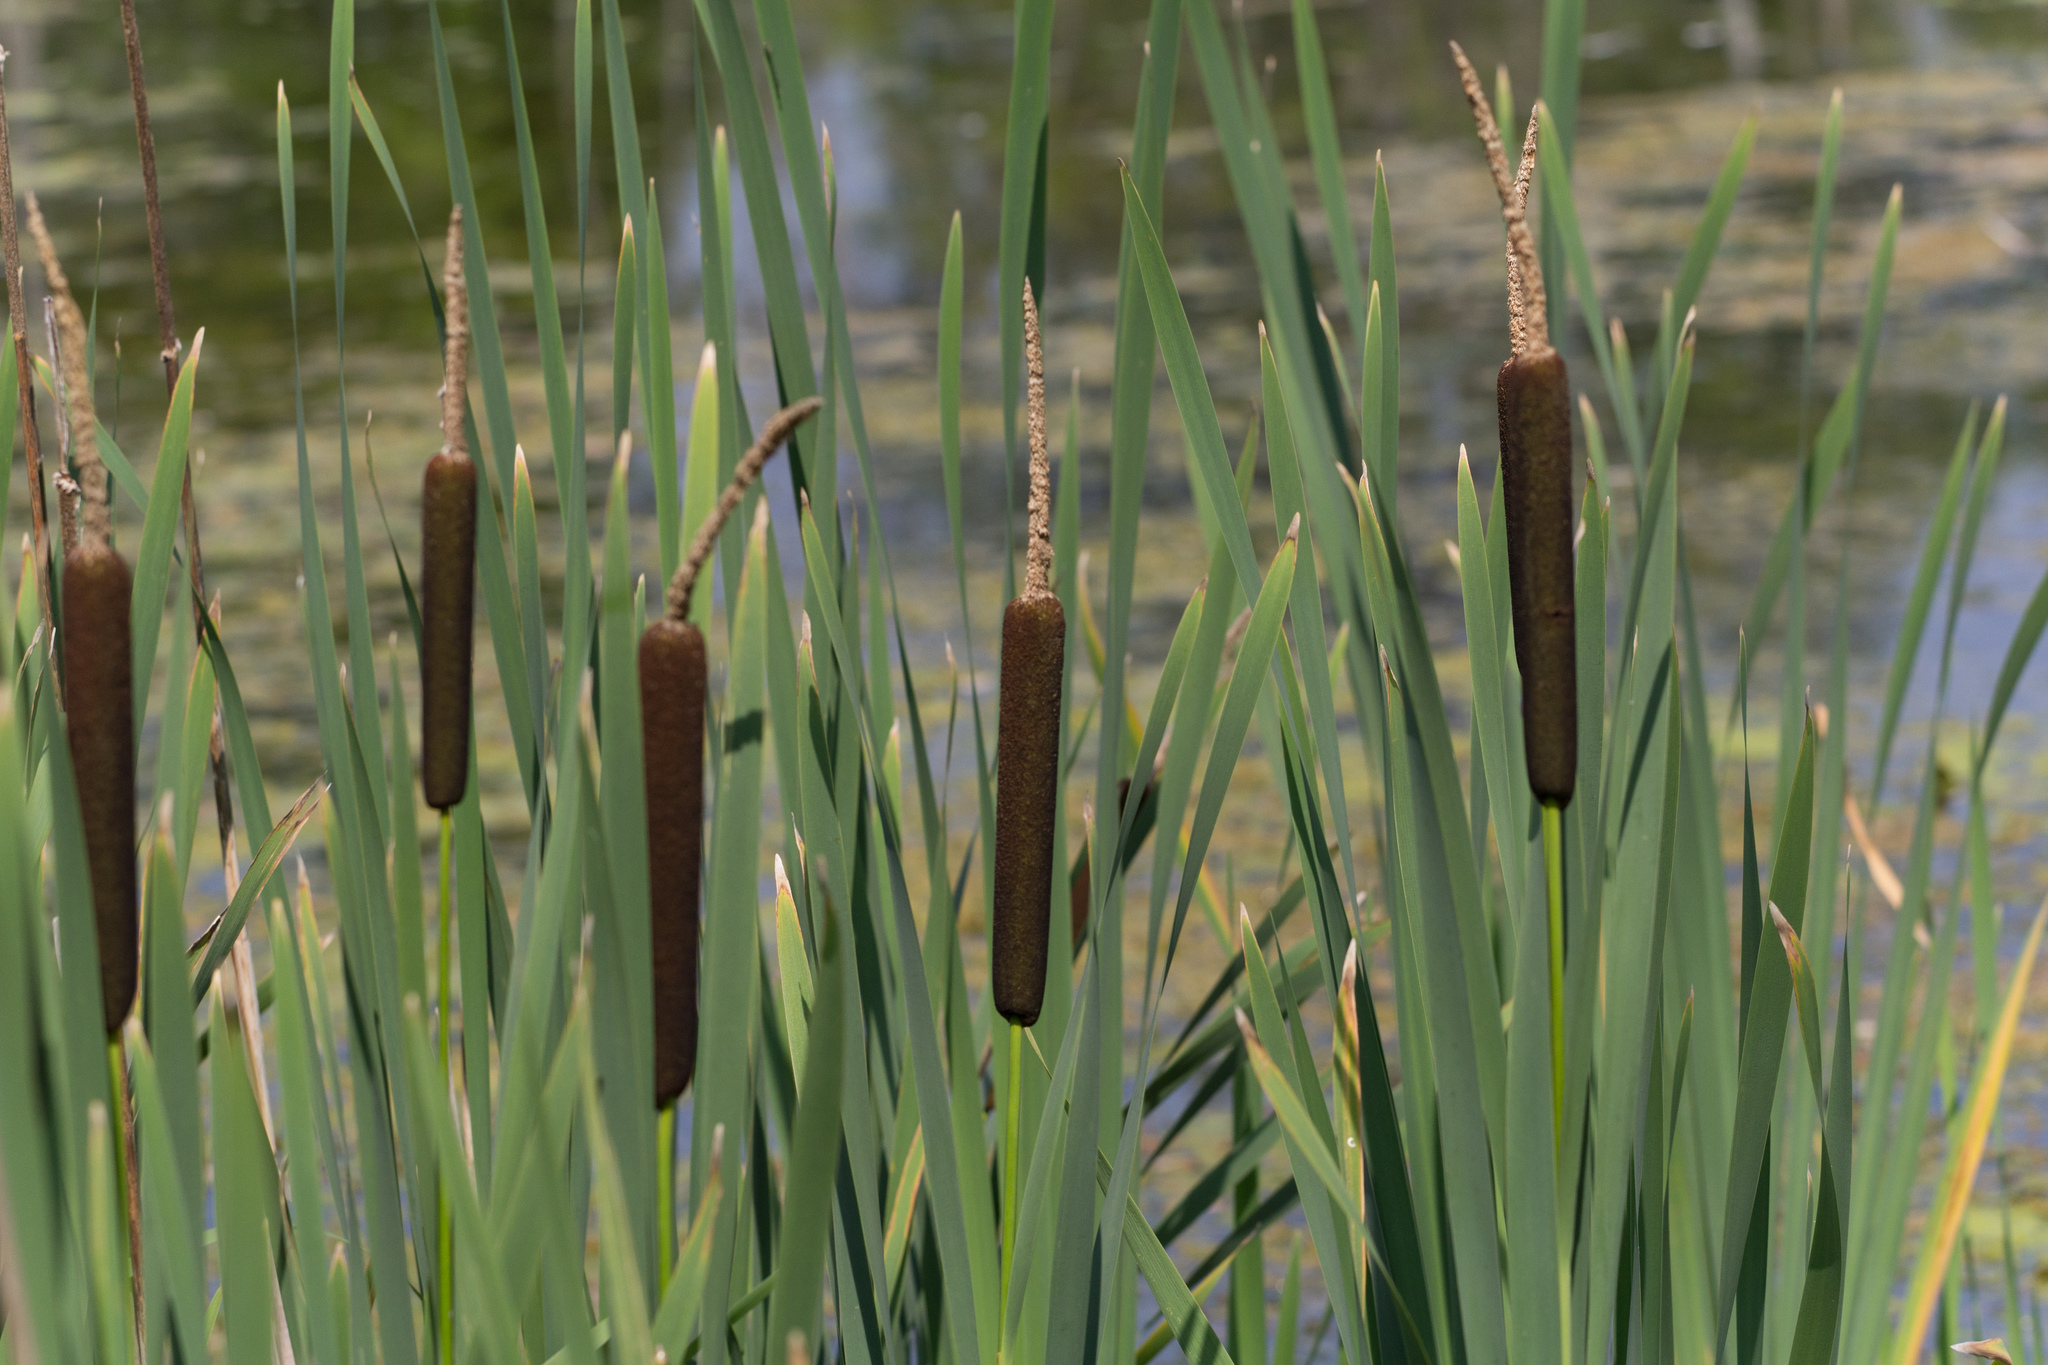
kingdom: Plantae
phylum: Tracheophyta
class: Liliopsida
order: Poales
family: Typhaceae
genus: Typha
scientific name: Typha latifolia
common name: Broadleaf cattail
